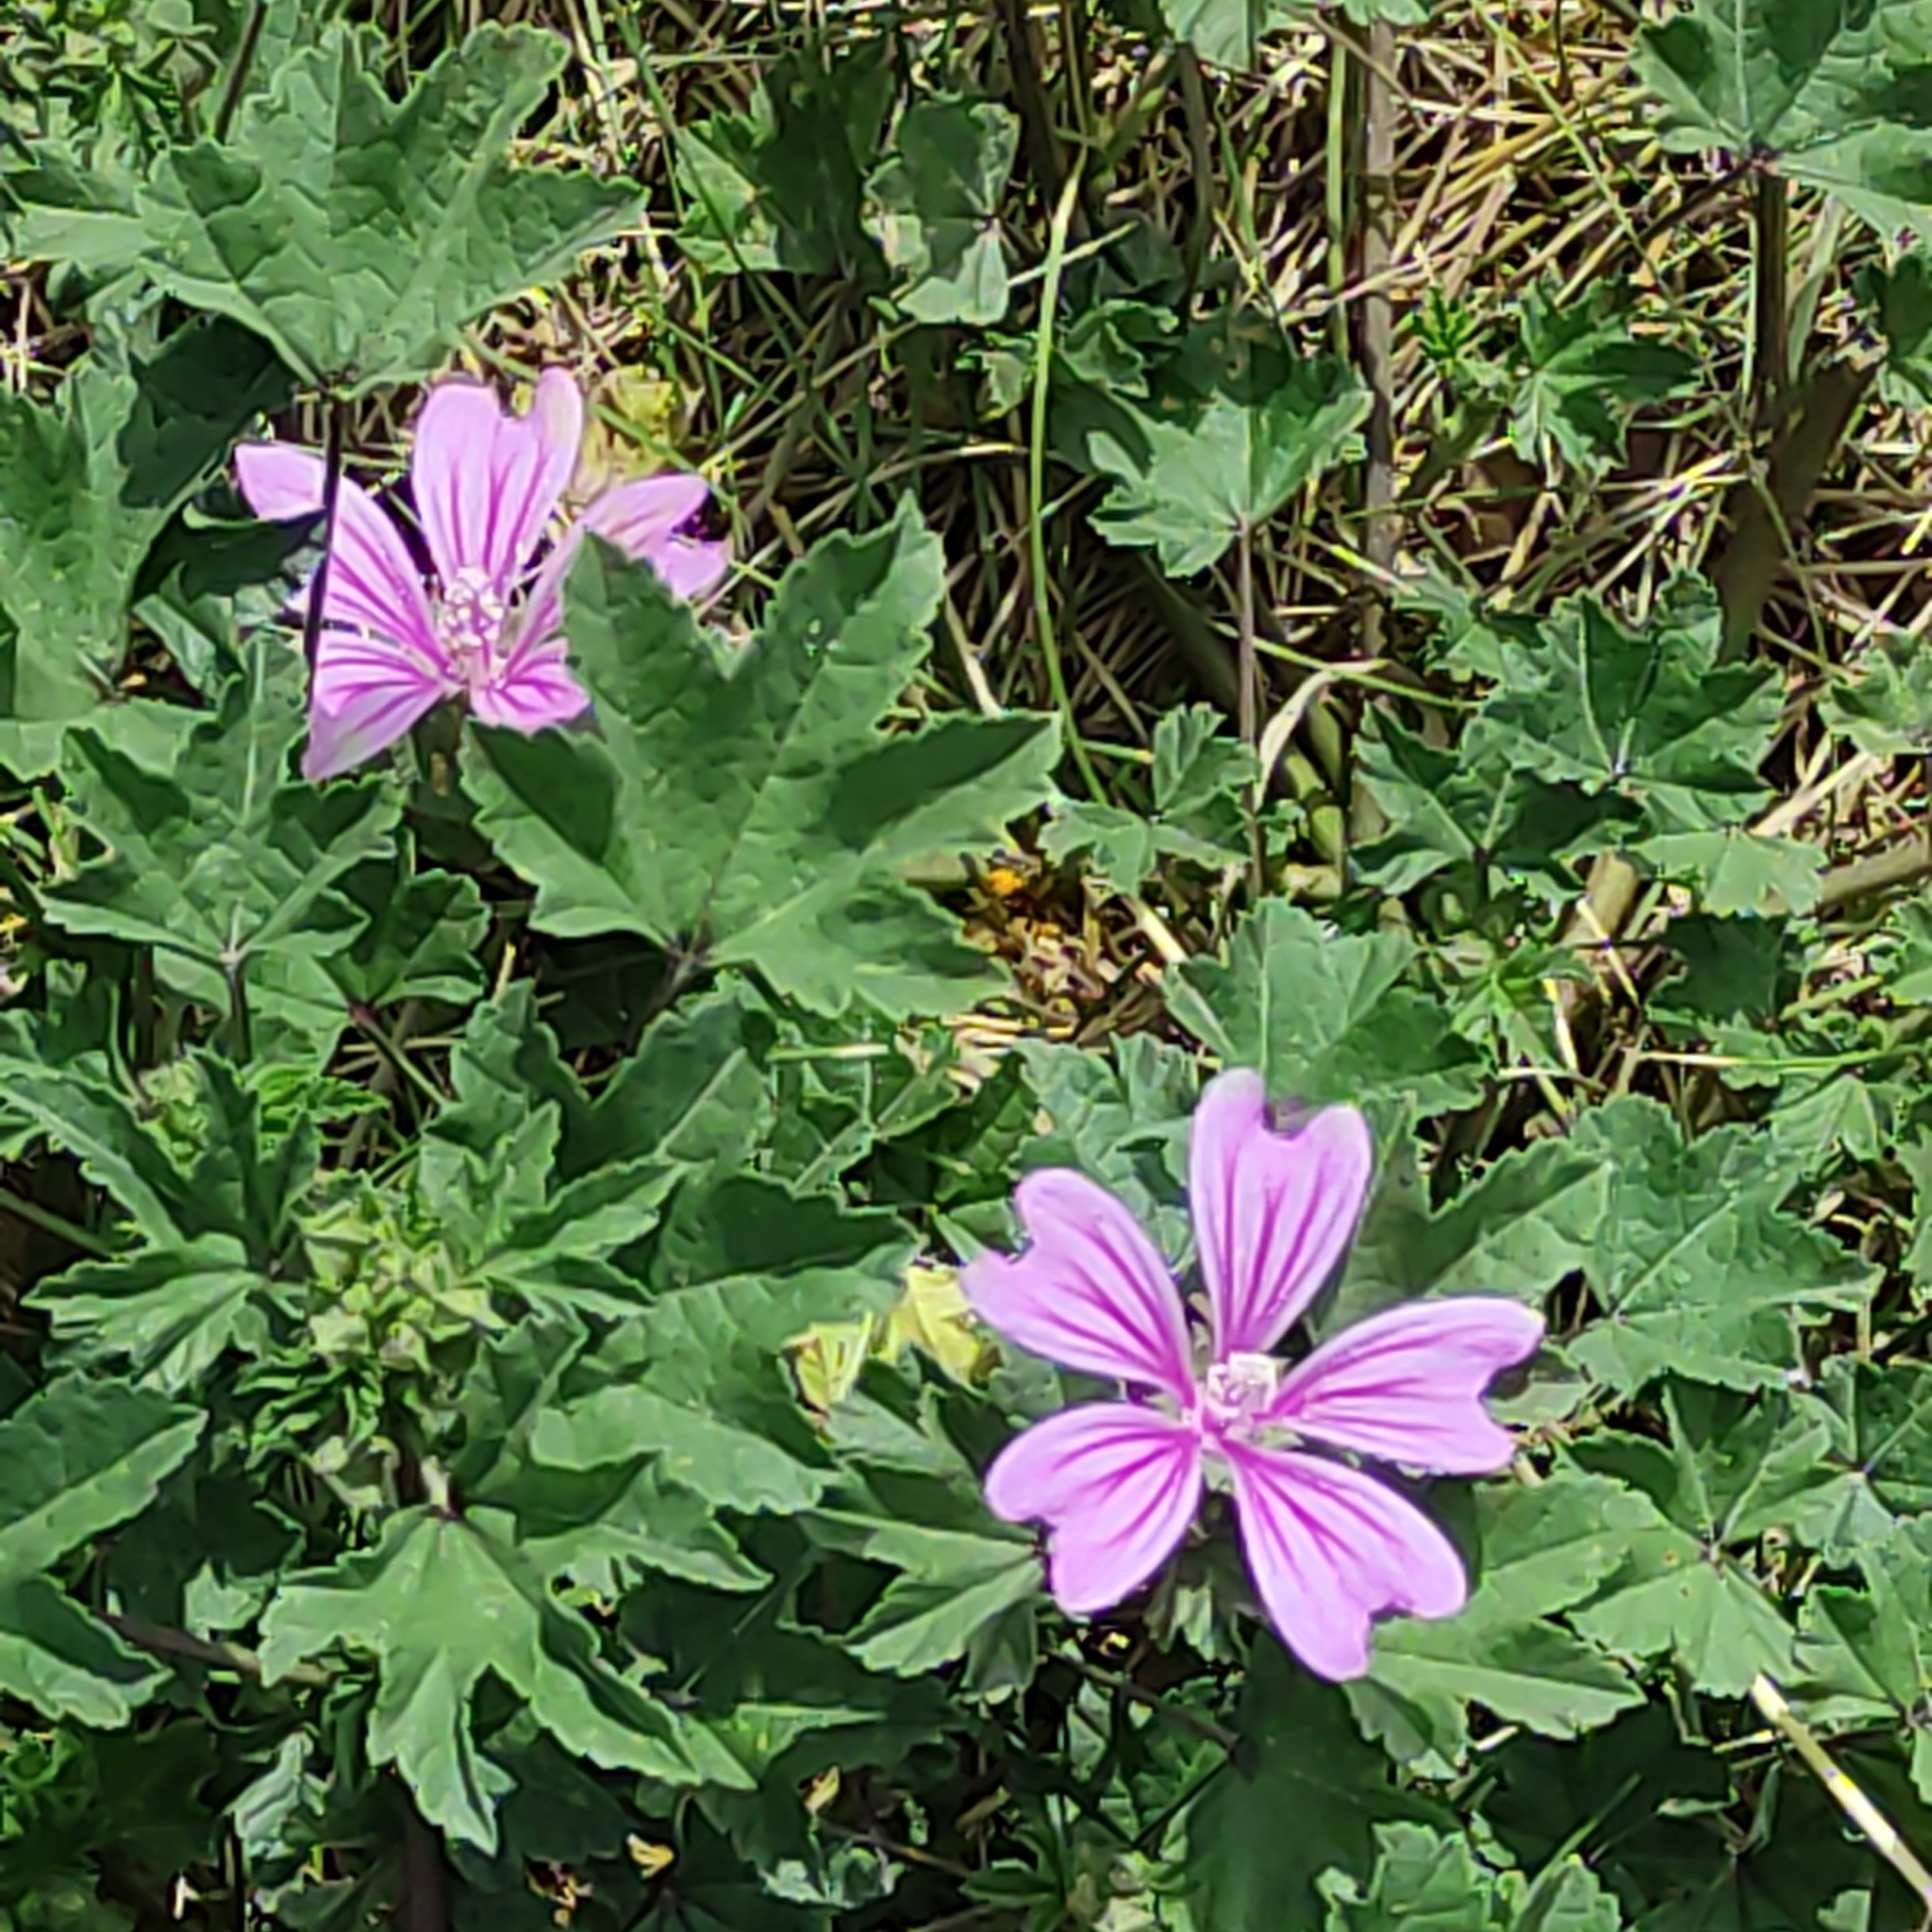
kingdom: Plantae
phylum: Tracheophyta
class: Magnoliopsida
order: Malvales
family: Malvaceae
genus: Malva
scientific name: Malva sylvestris
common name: Common mallow
